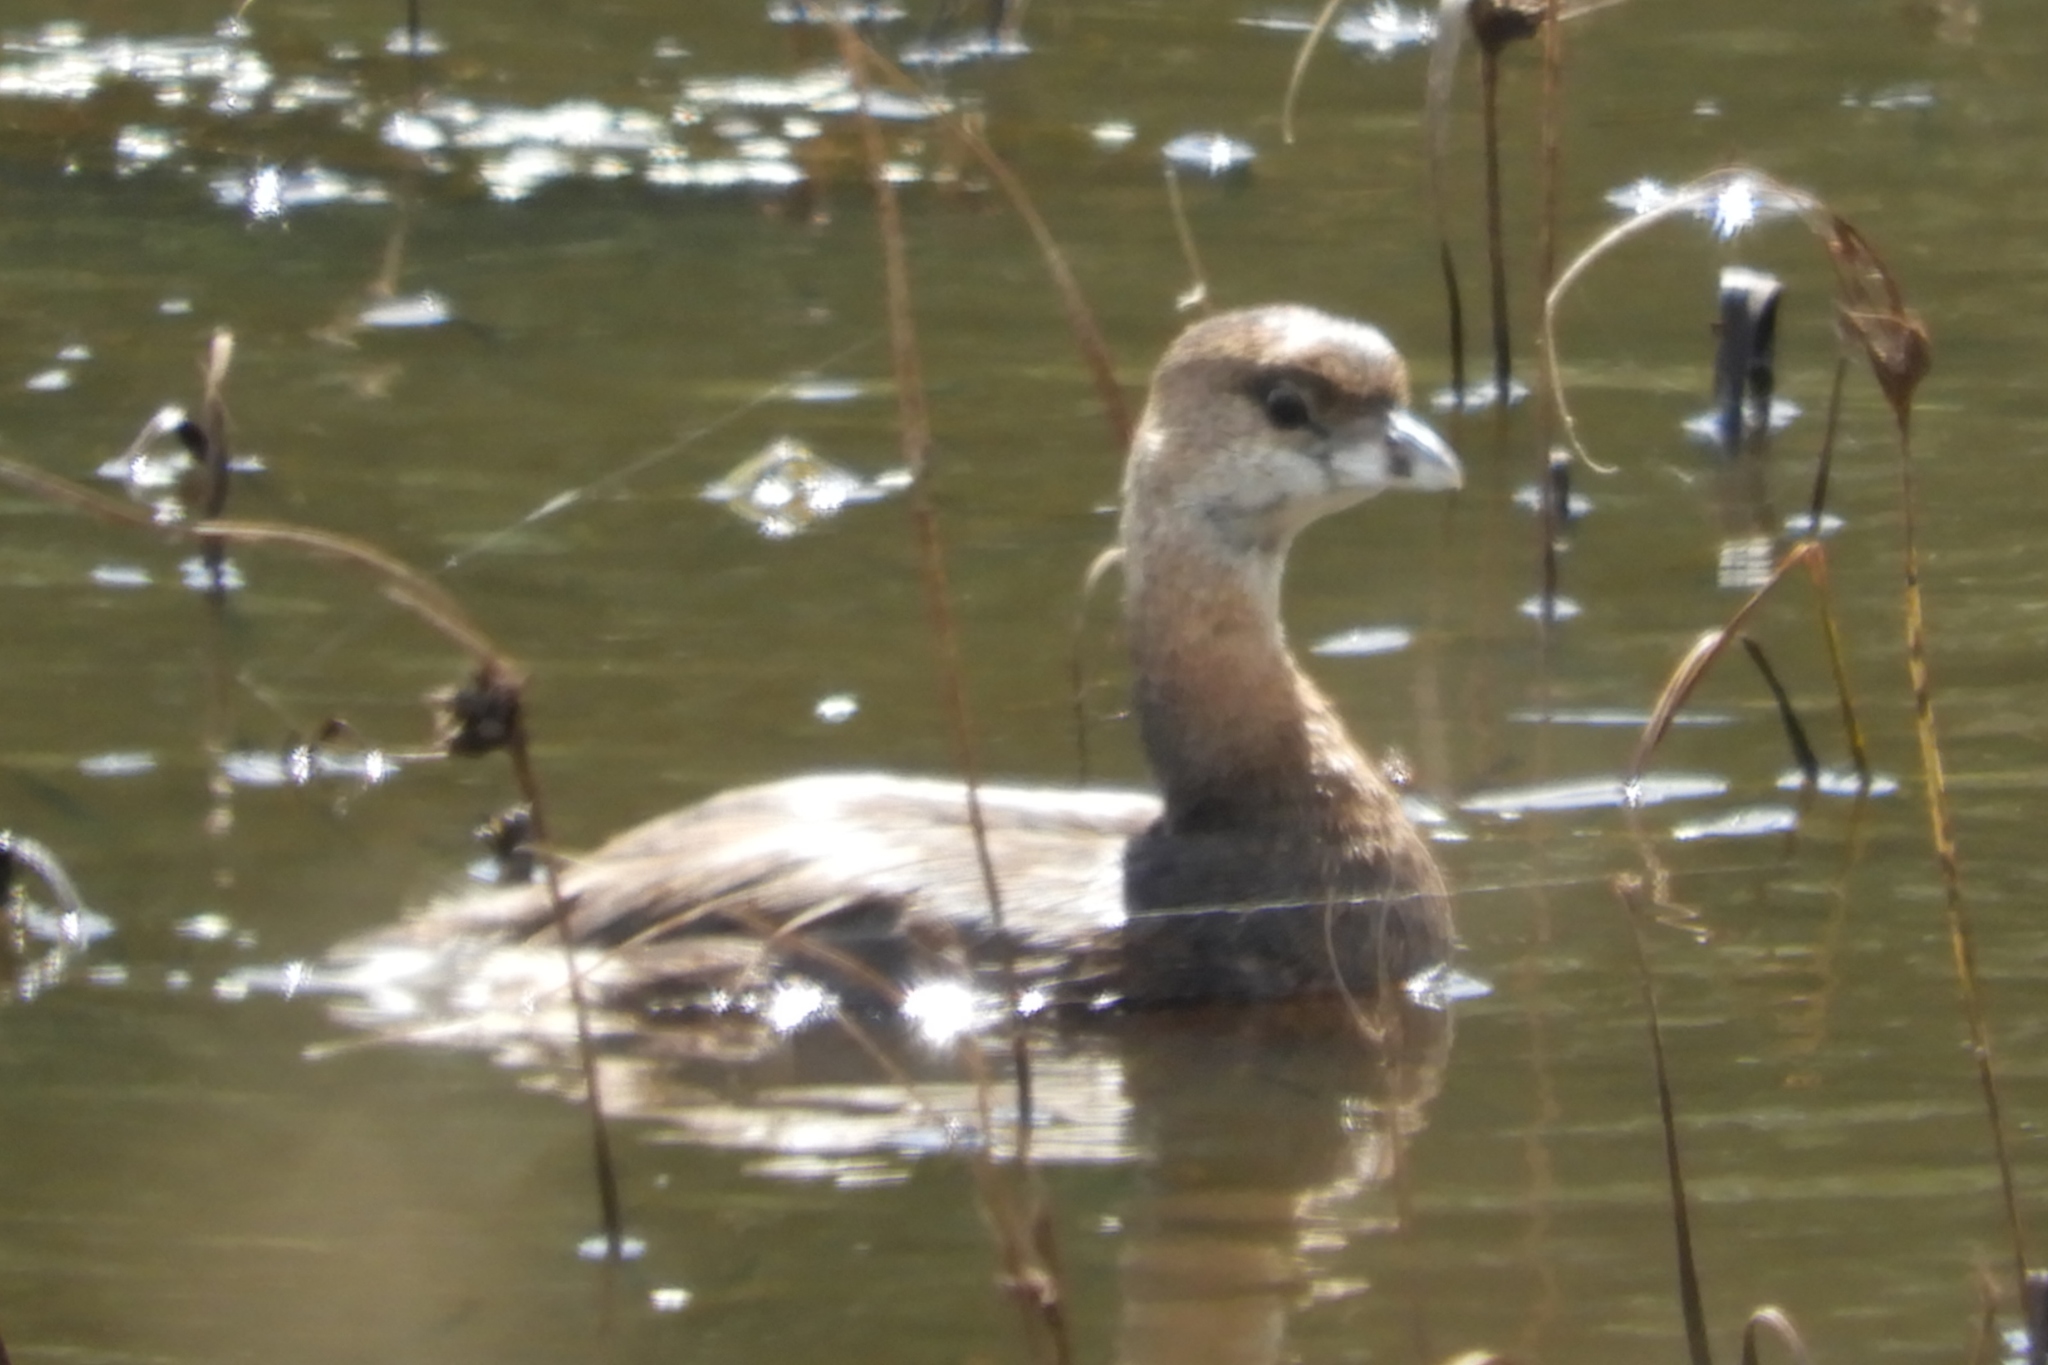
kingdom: Animalia
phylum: Chordata
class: Aves
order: Podicipediformes
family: Podicipedidae
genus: Podilymbus
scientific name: Podilymbus podiceps
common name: Pied-billed grebe
